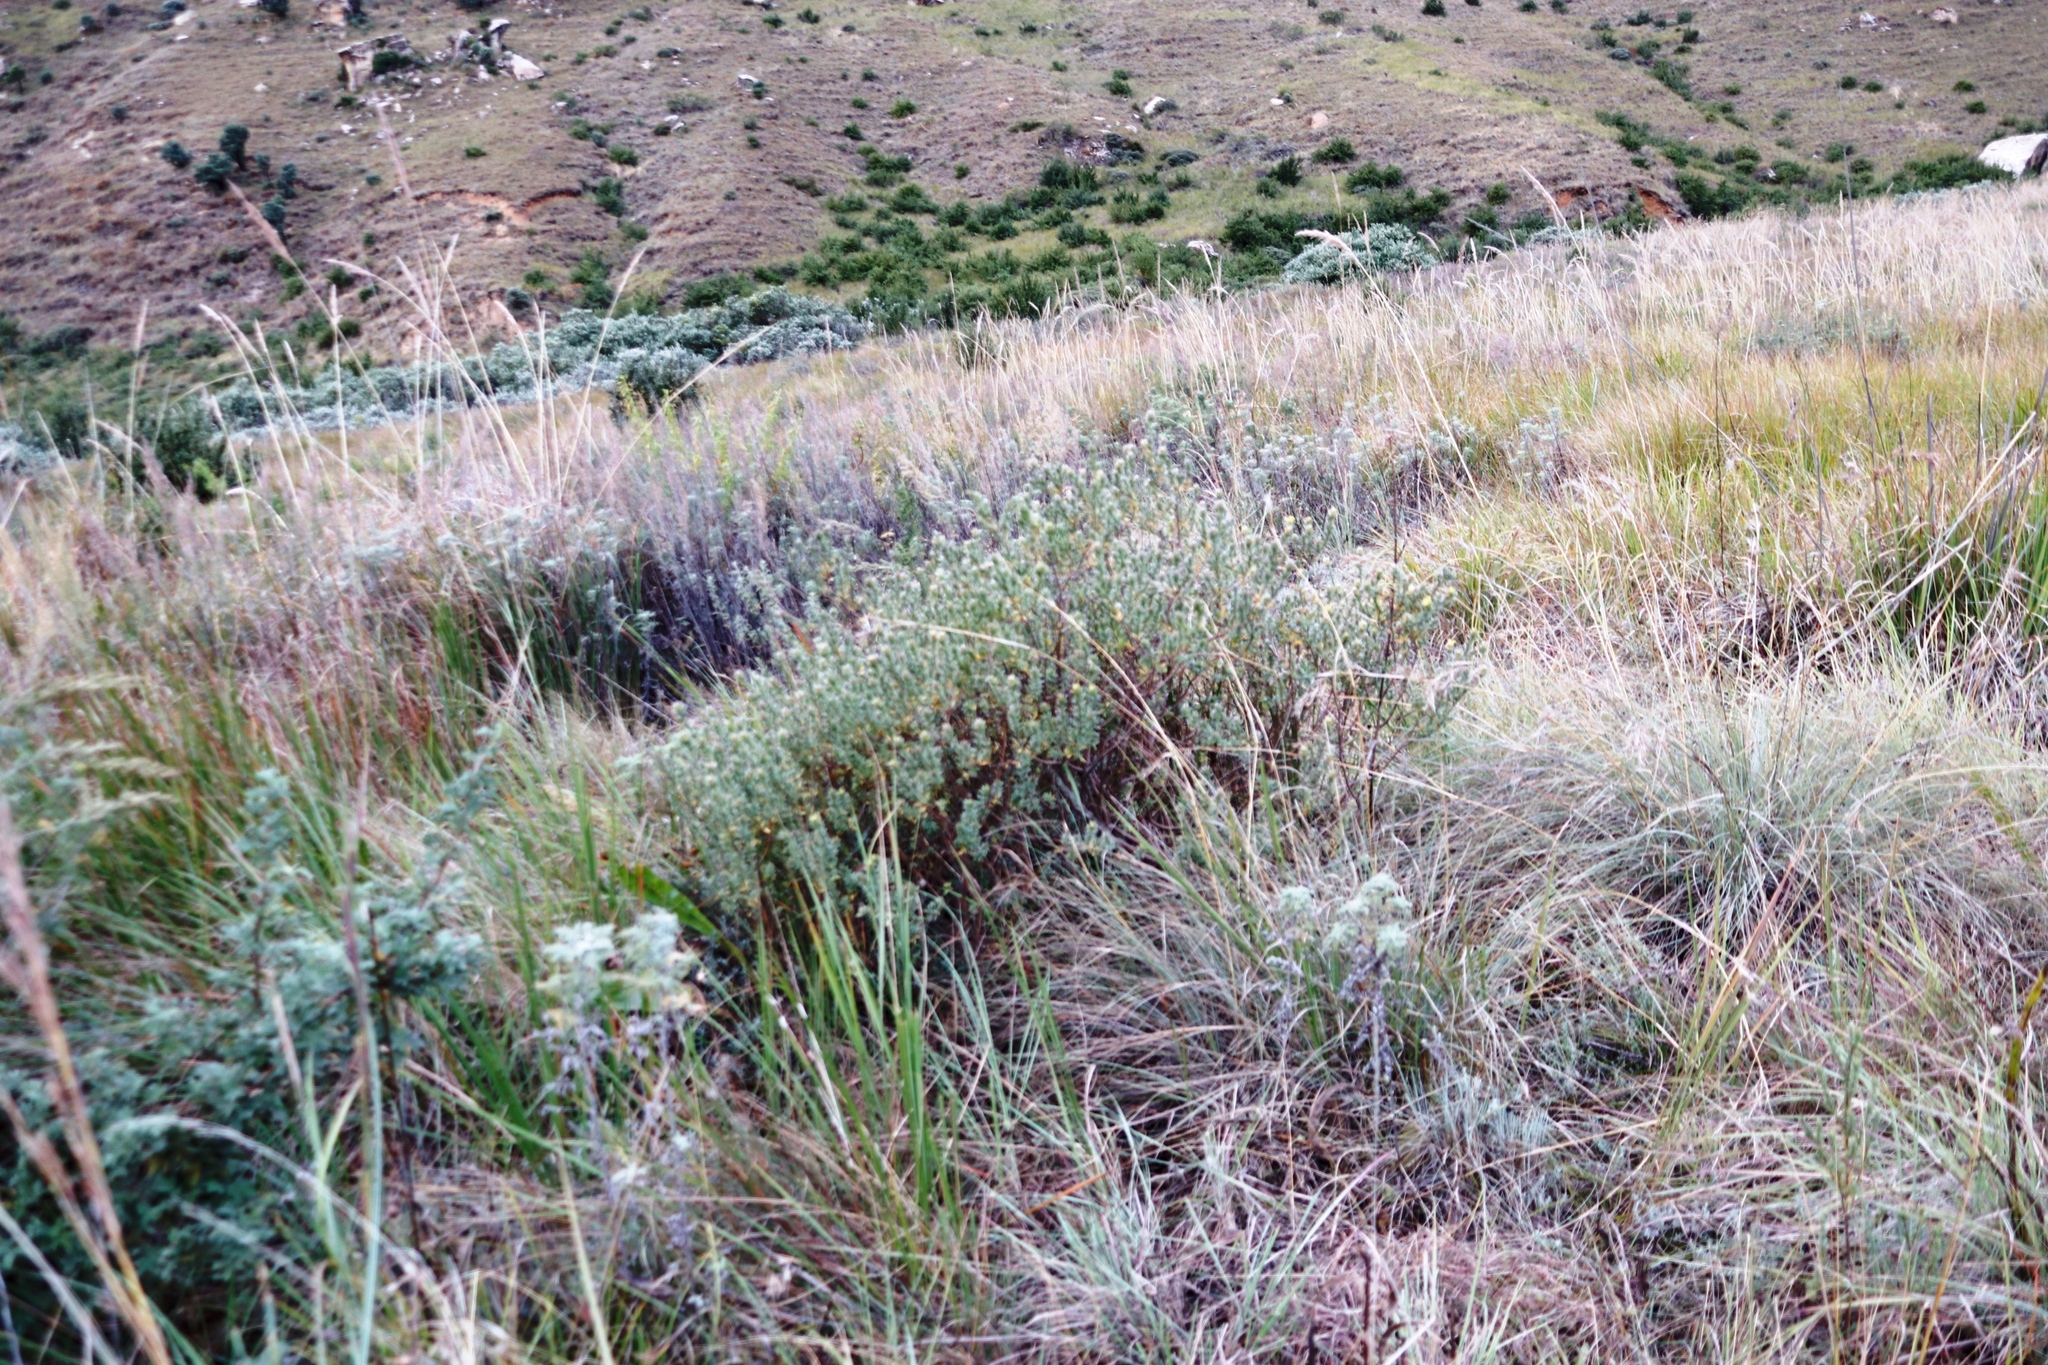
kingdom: Plantae
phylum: Tracheophyta
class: Magnoliopsida
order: Malvales
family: Thymelaeaceae
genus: Gnidia
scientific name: Gnidia anthylloides
